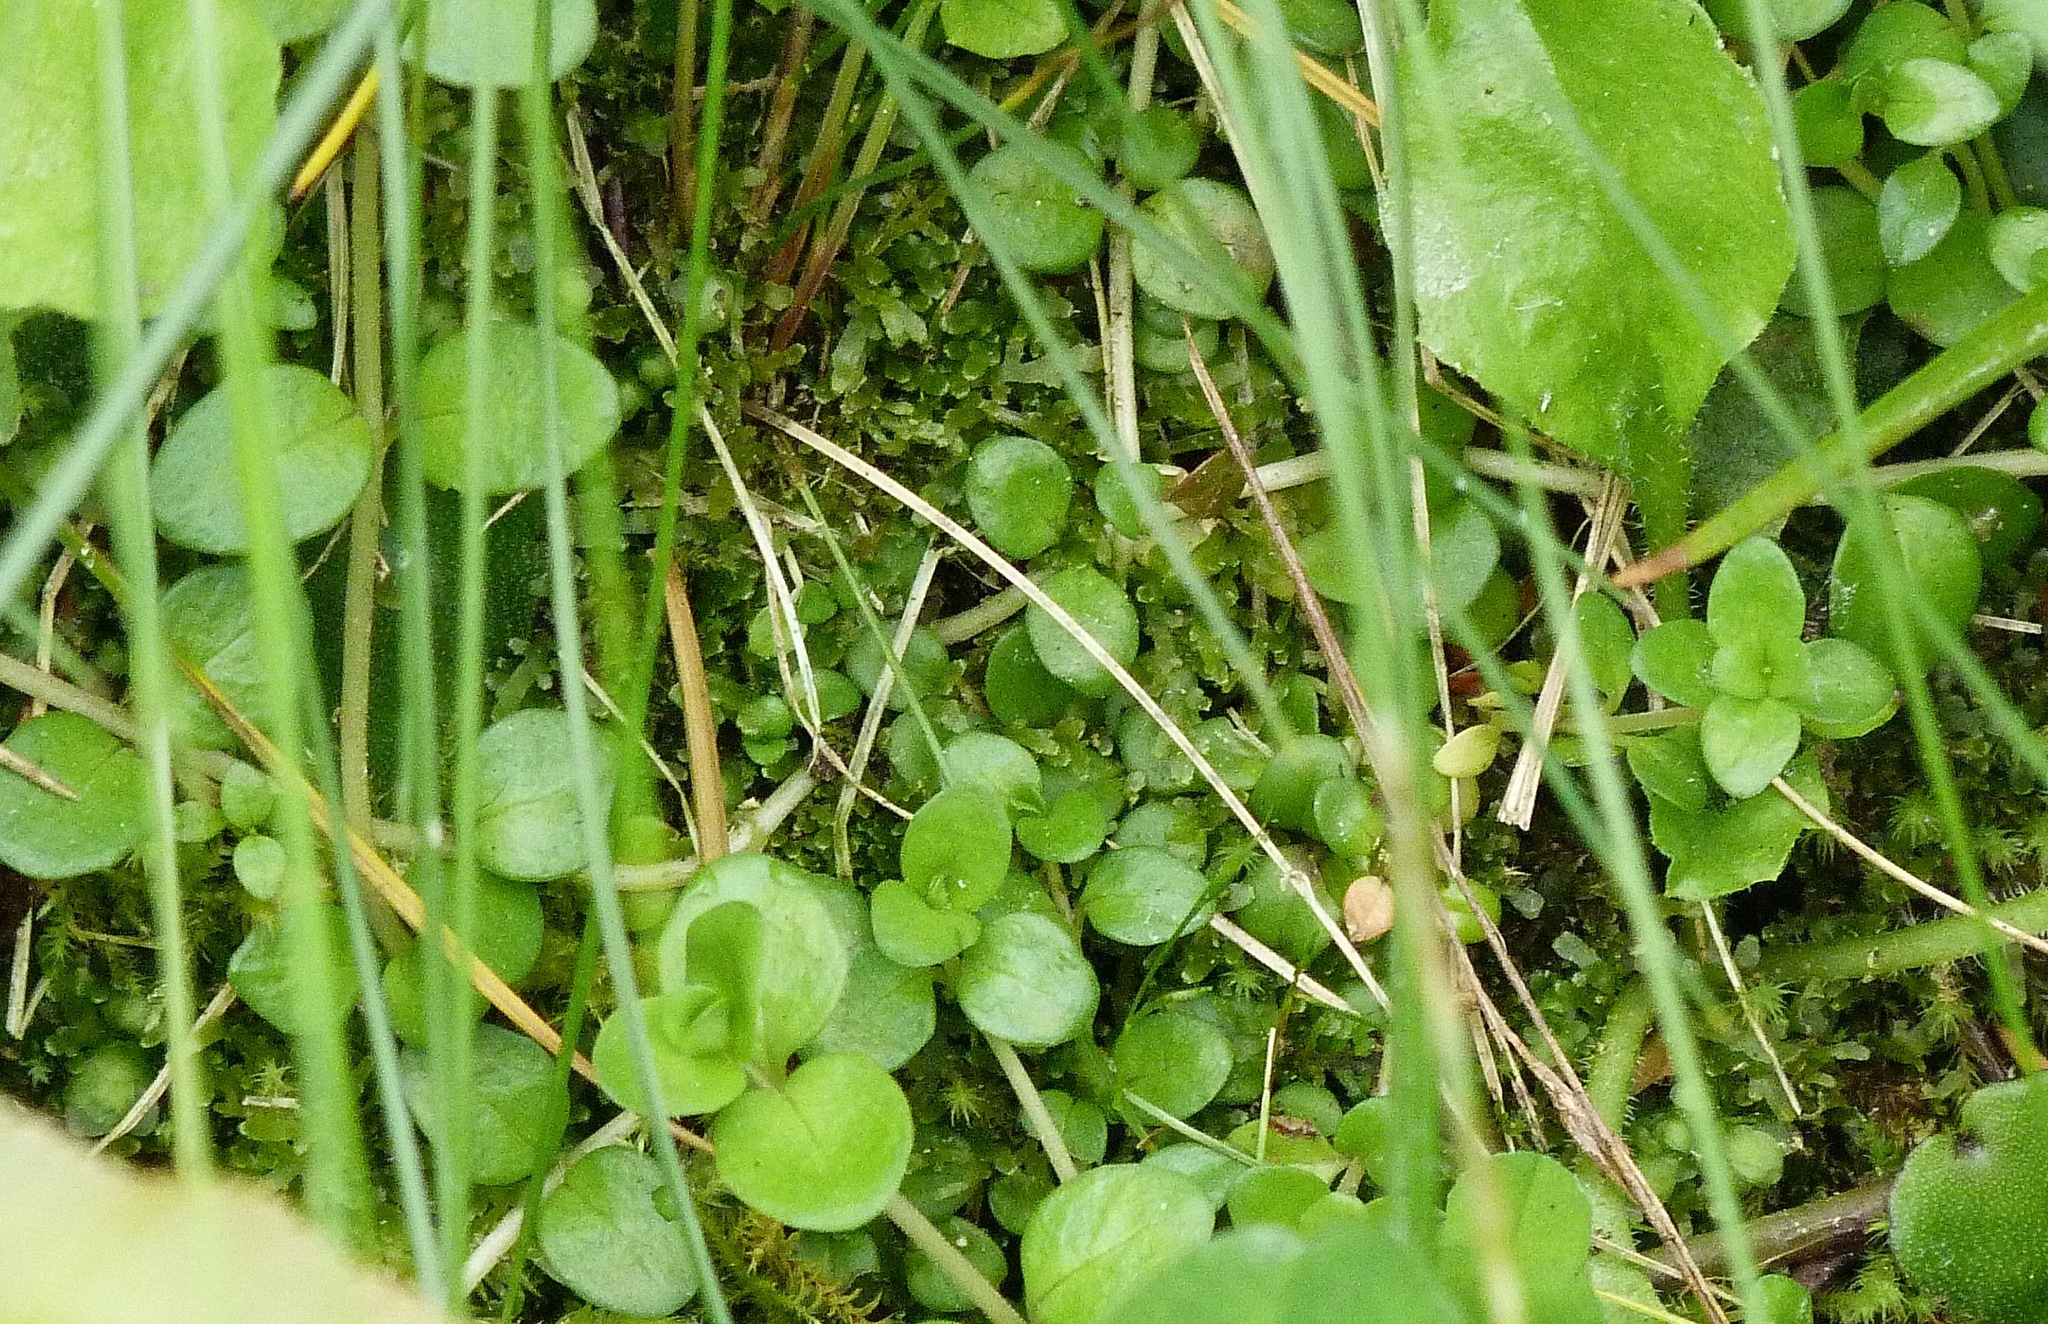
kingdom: Plantae
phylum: Tracheophyta
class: Magnoliopsida
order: Myrtales
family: Onagraceae
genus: Epilobium
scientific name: Epilobium brunnescens
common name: New zealand willowherb
